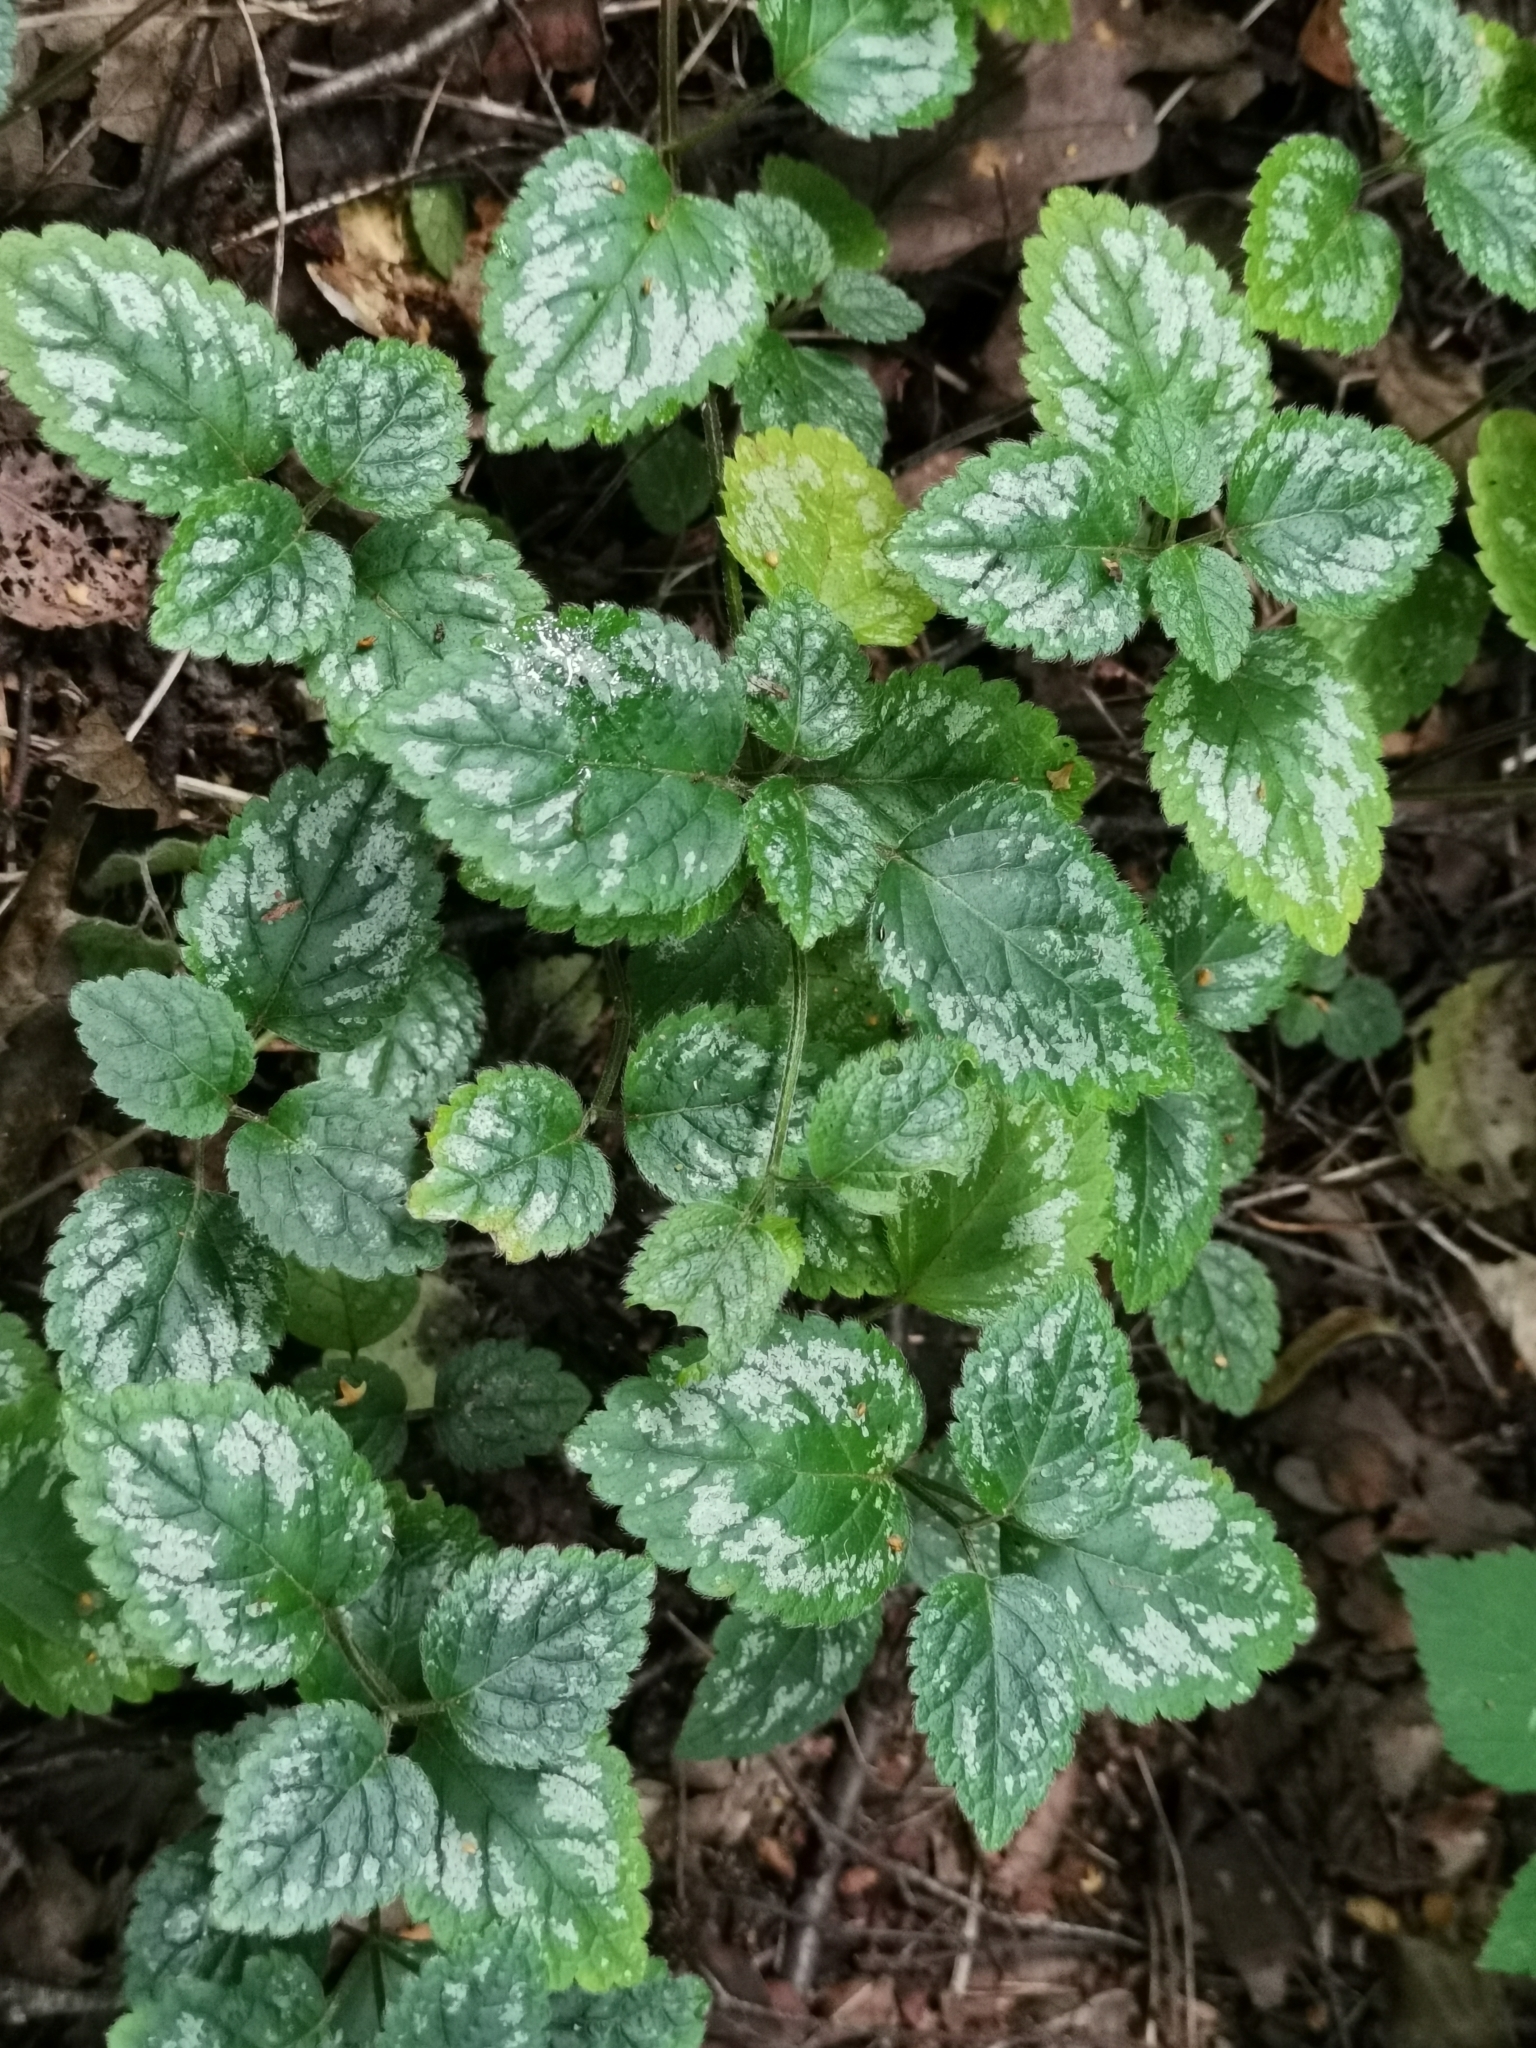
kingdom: Plantae
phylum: Tracheophyta
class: Magnoliopsida
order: Lamiales
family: Lamiaceae
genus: Lamium
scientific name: Lamium galeobdolon
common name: Yellow archangel
